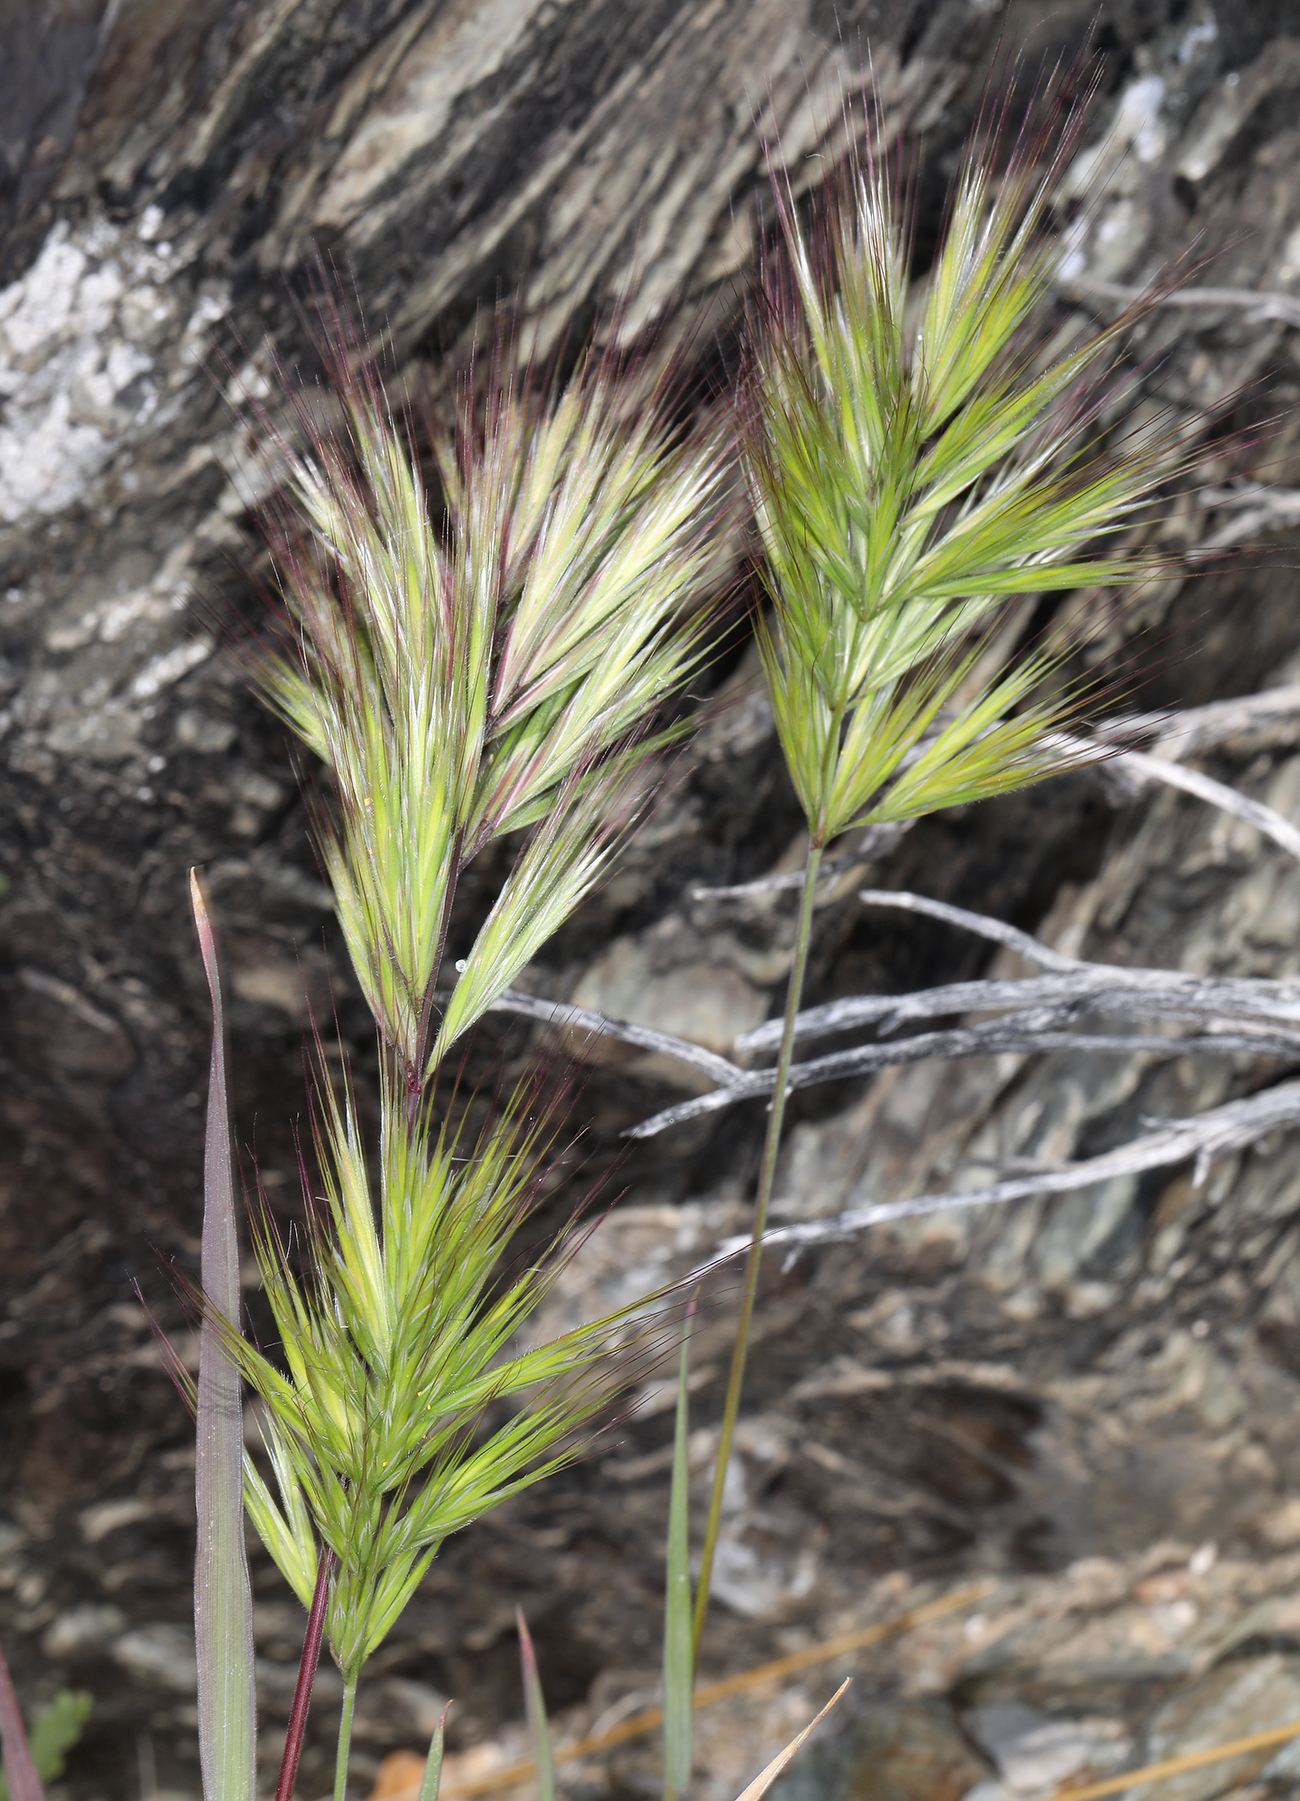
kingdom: Plantae
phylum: Tracheophyta
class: Liliopsida
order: Poales
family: Poaceae
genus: Bromus
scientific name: Bromus rubens
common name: Red brome
